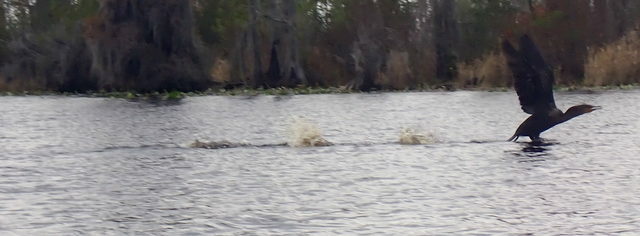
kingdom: Animalia
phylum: Chordata
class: Aves
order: Suliformes
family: Phalacrocoracidae
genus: Phalacrocorax
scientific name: Phalacrocorax auritus
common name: Double-crested cormorant
